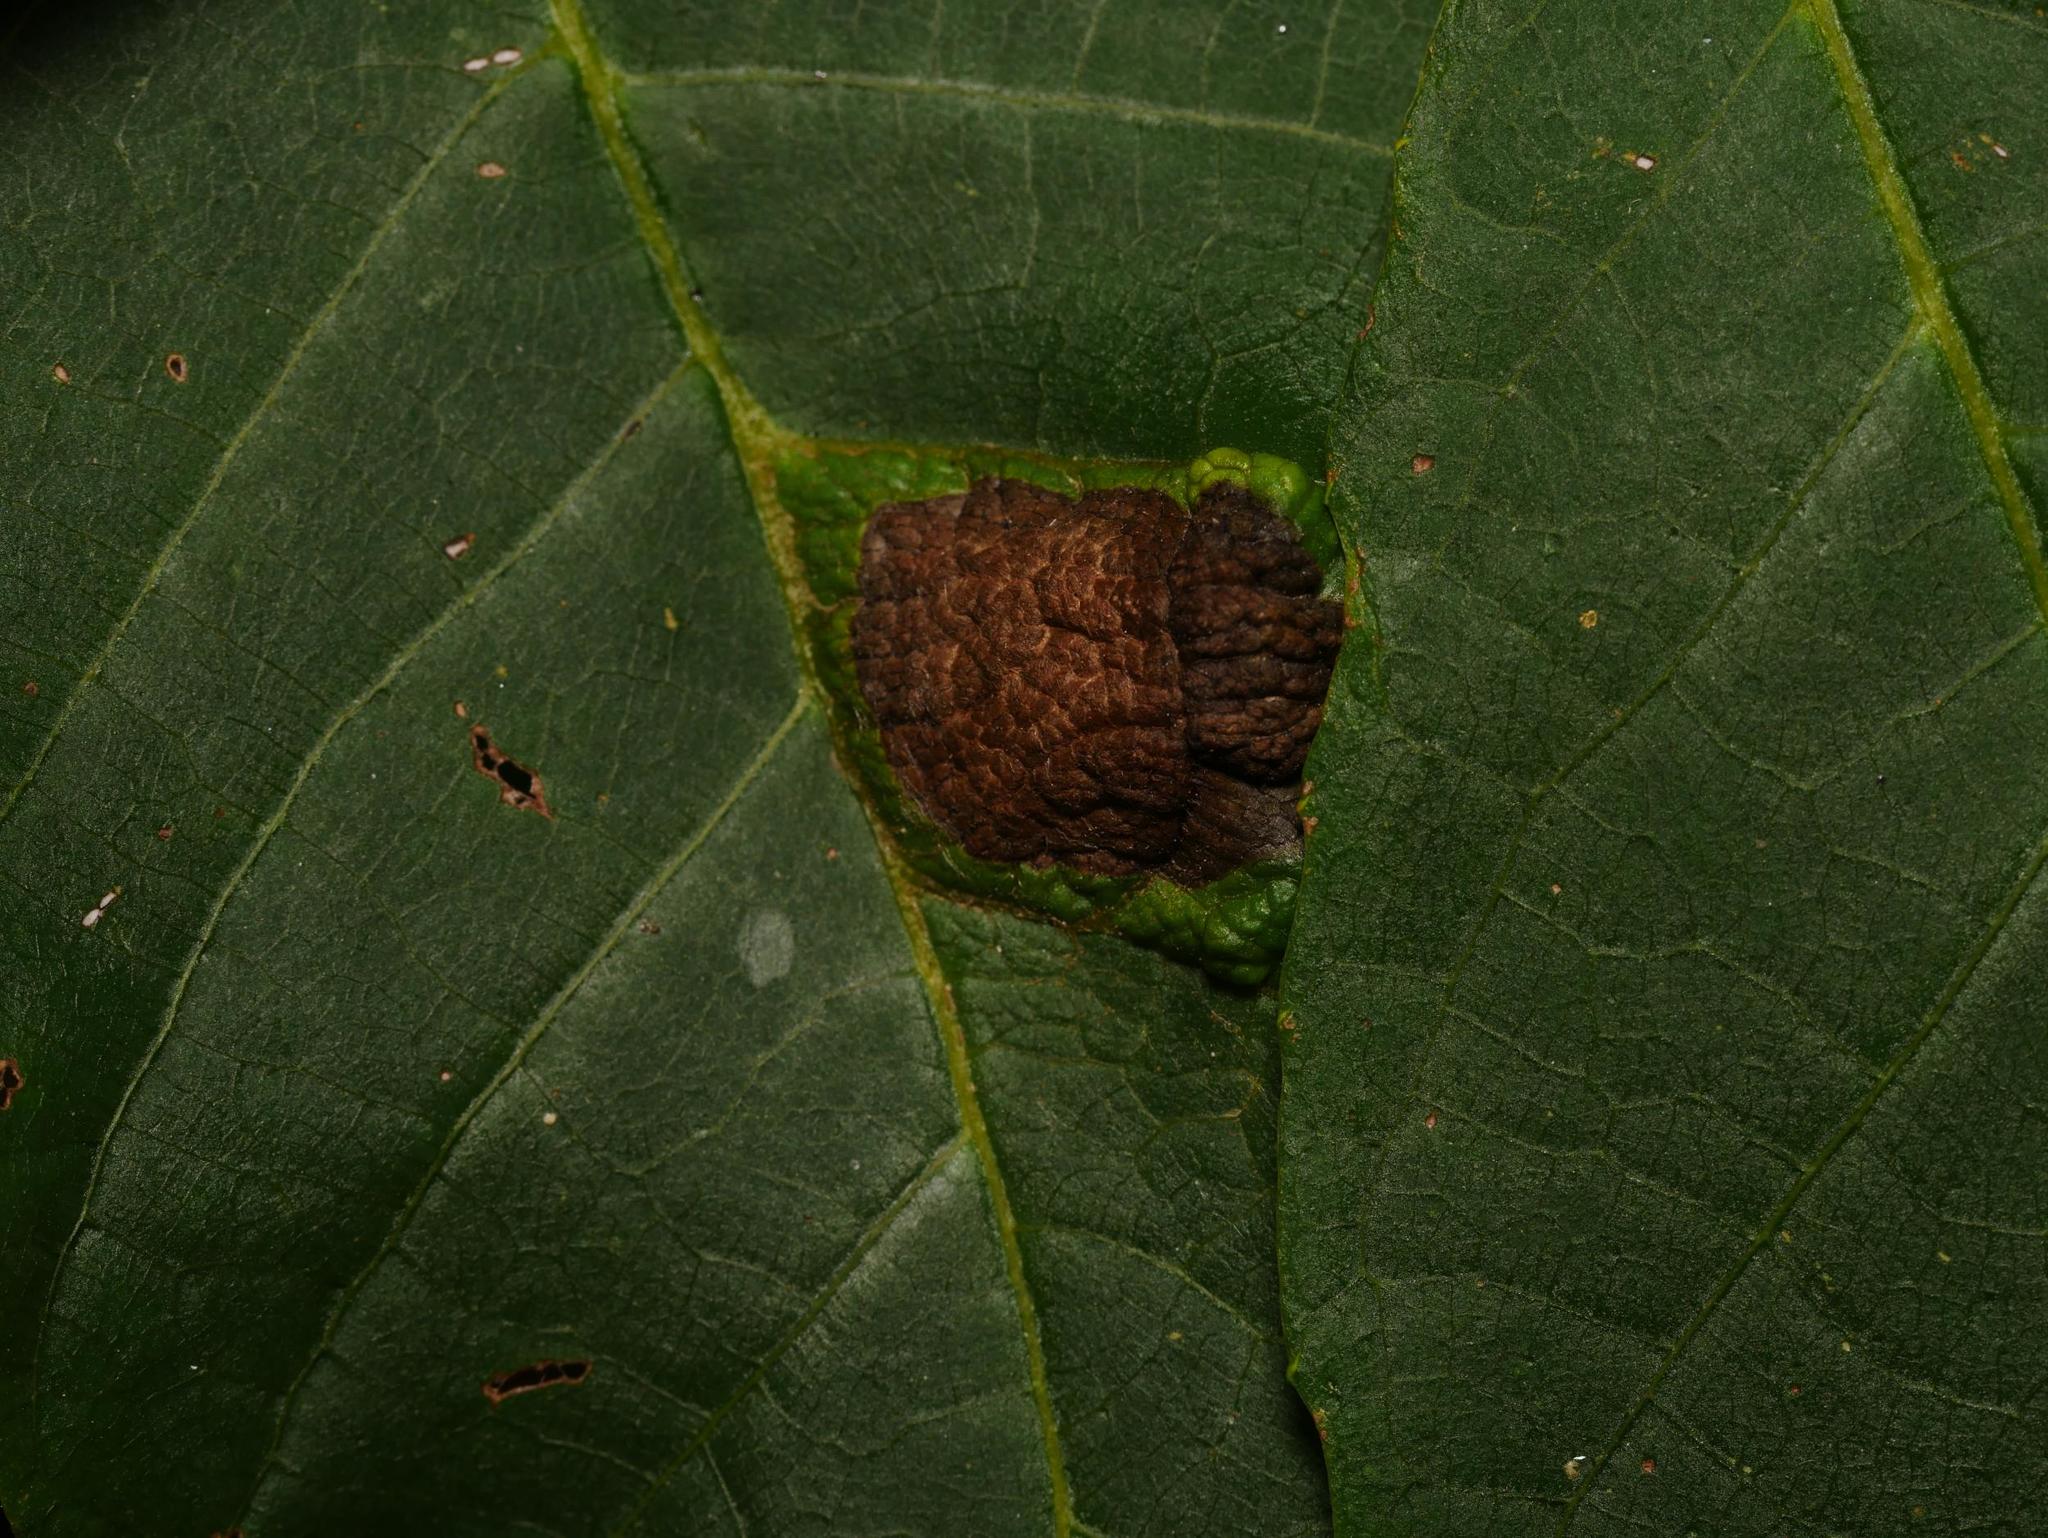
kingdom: Animalia
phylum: Arthropoda
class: Arachnida
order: Trombidiformes
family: Eriophyidae
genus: Aceria
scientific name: Aceria erinea
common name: Persian walnut erineum mite
